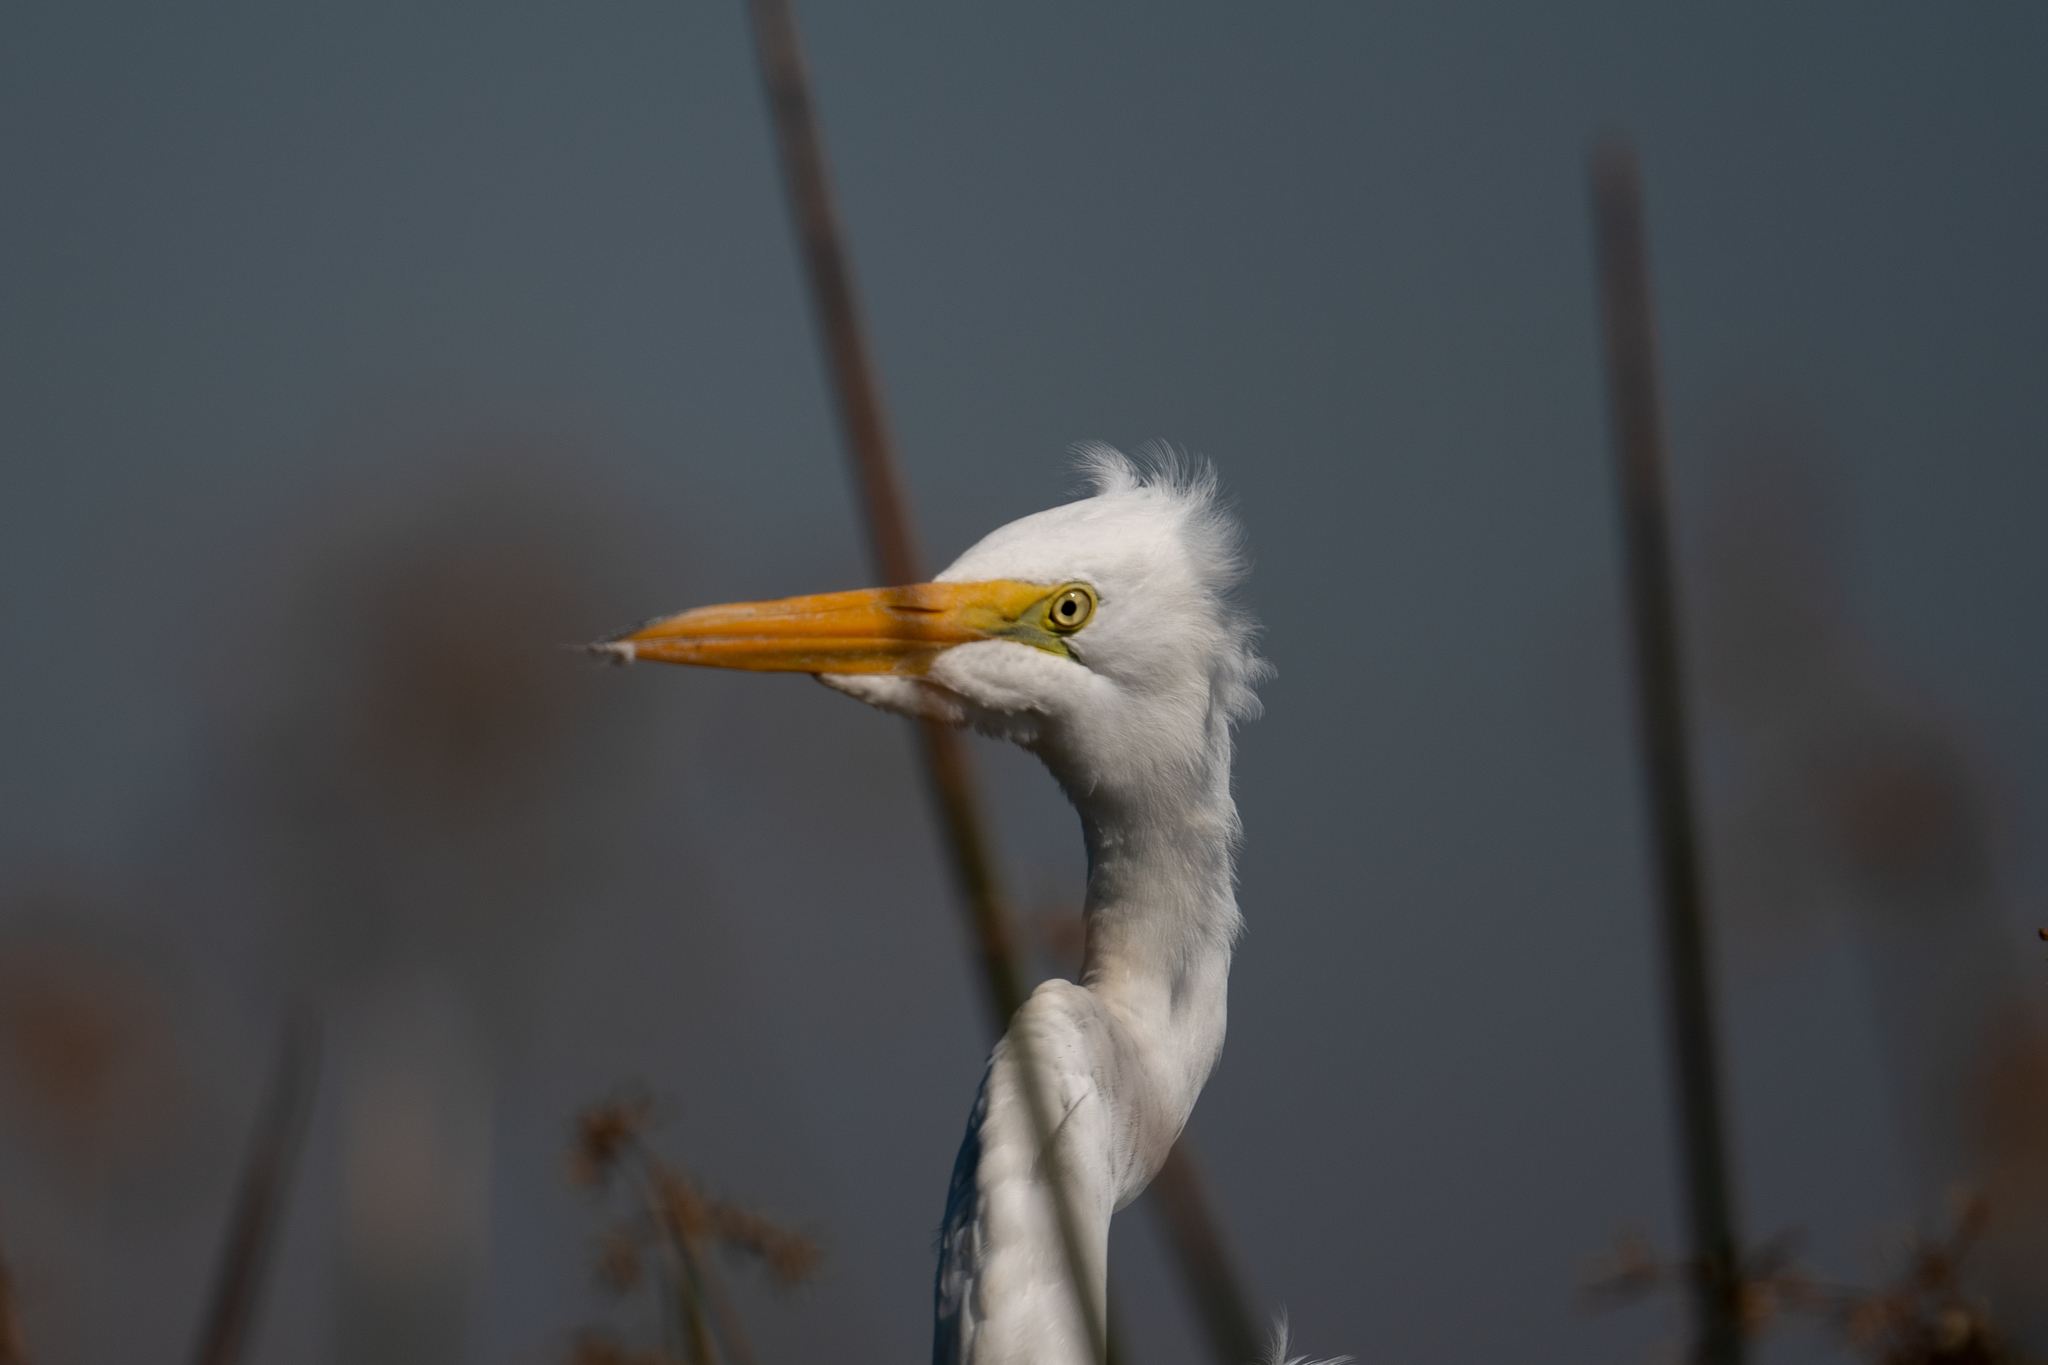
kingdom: Animalia
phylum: Chordata
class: Aves
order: Pelecaniformes
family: Ardeidae
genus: Ardea
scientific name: Ardea alba
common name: Great egret
